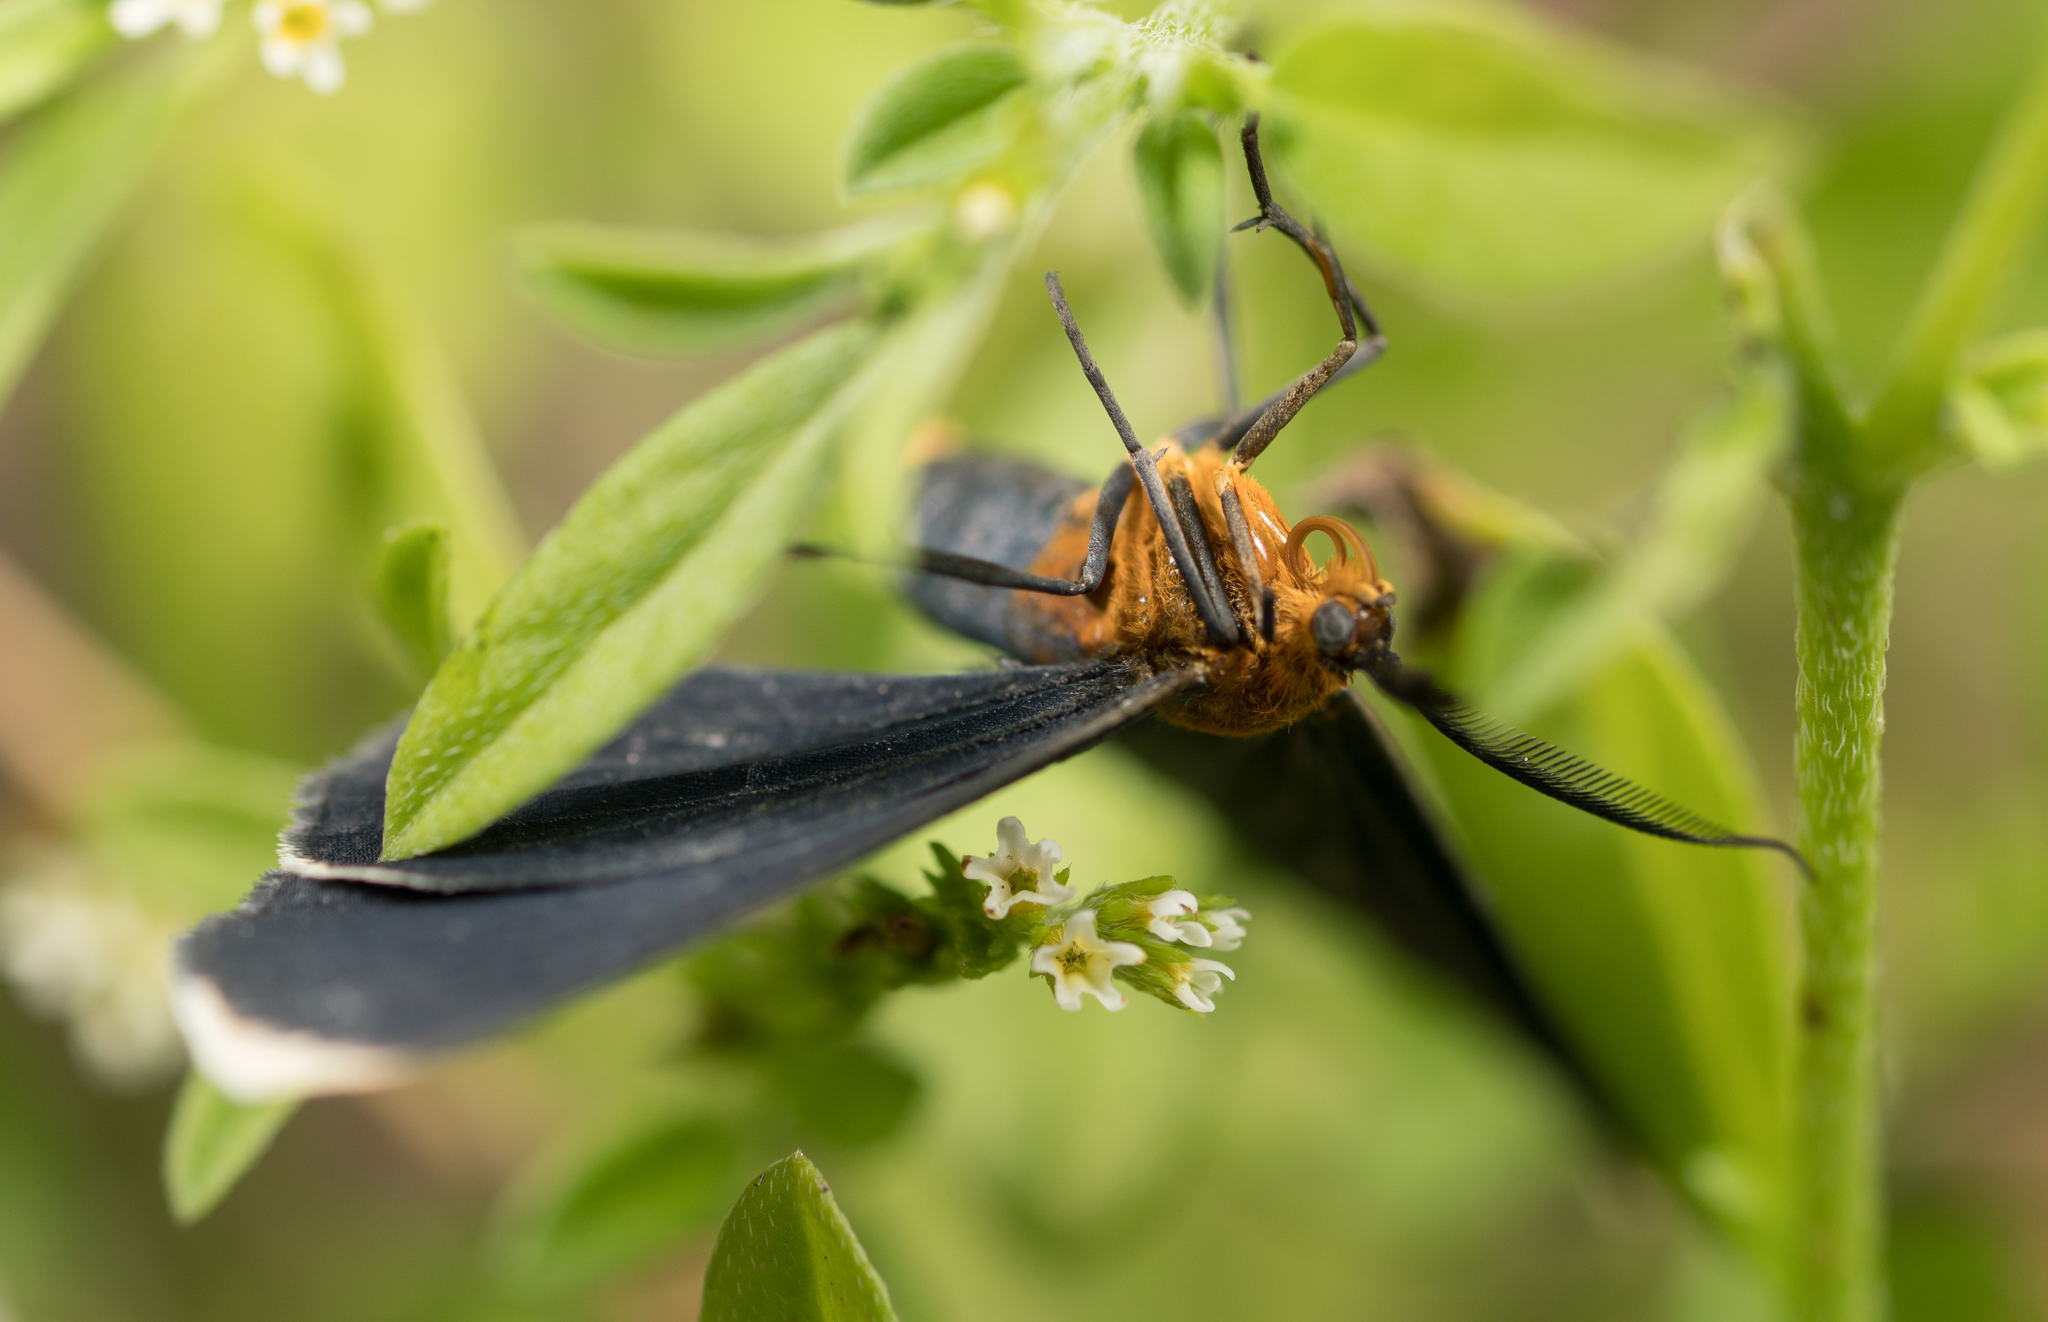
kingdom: Animalia
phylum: Arthropoda
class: Insecta
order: Lepidoptera
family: Geometridae
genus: Melanchroia
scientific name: Melanchroia chephise
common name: White-tipped black
